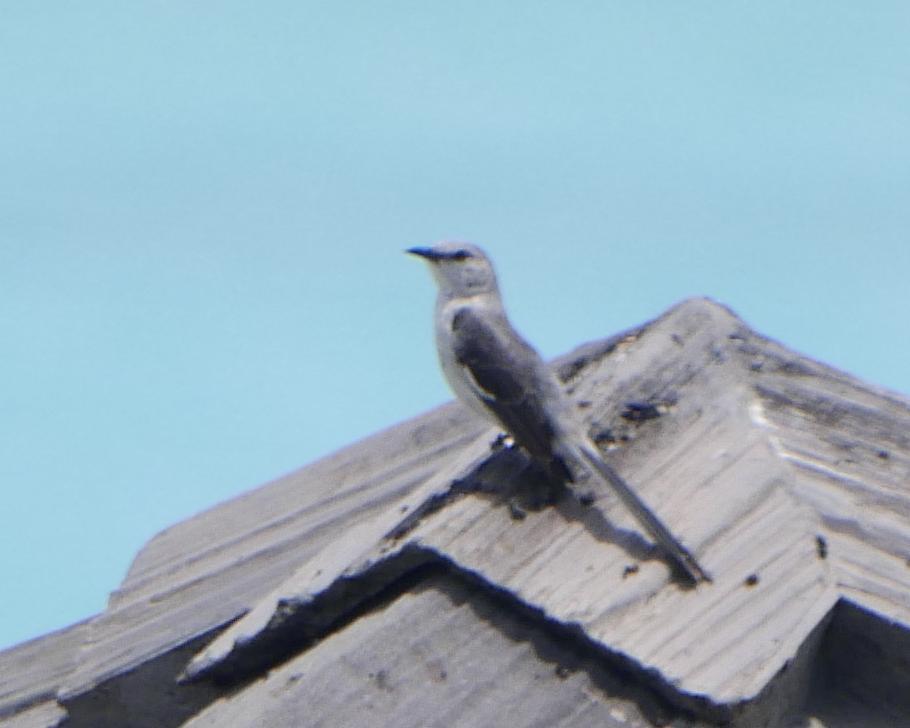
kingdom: Animalia
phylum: Chordata
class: Aves
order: Passeriformes
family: Mimidae
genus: Mimus
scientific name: Mimus polyglottos
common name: Northern mockingbird
